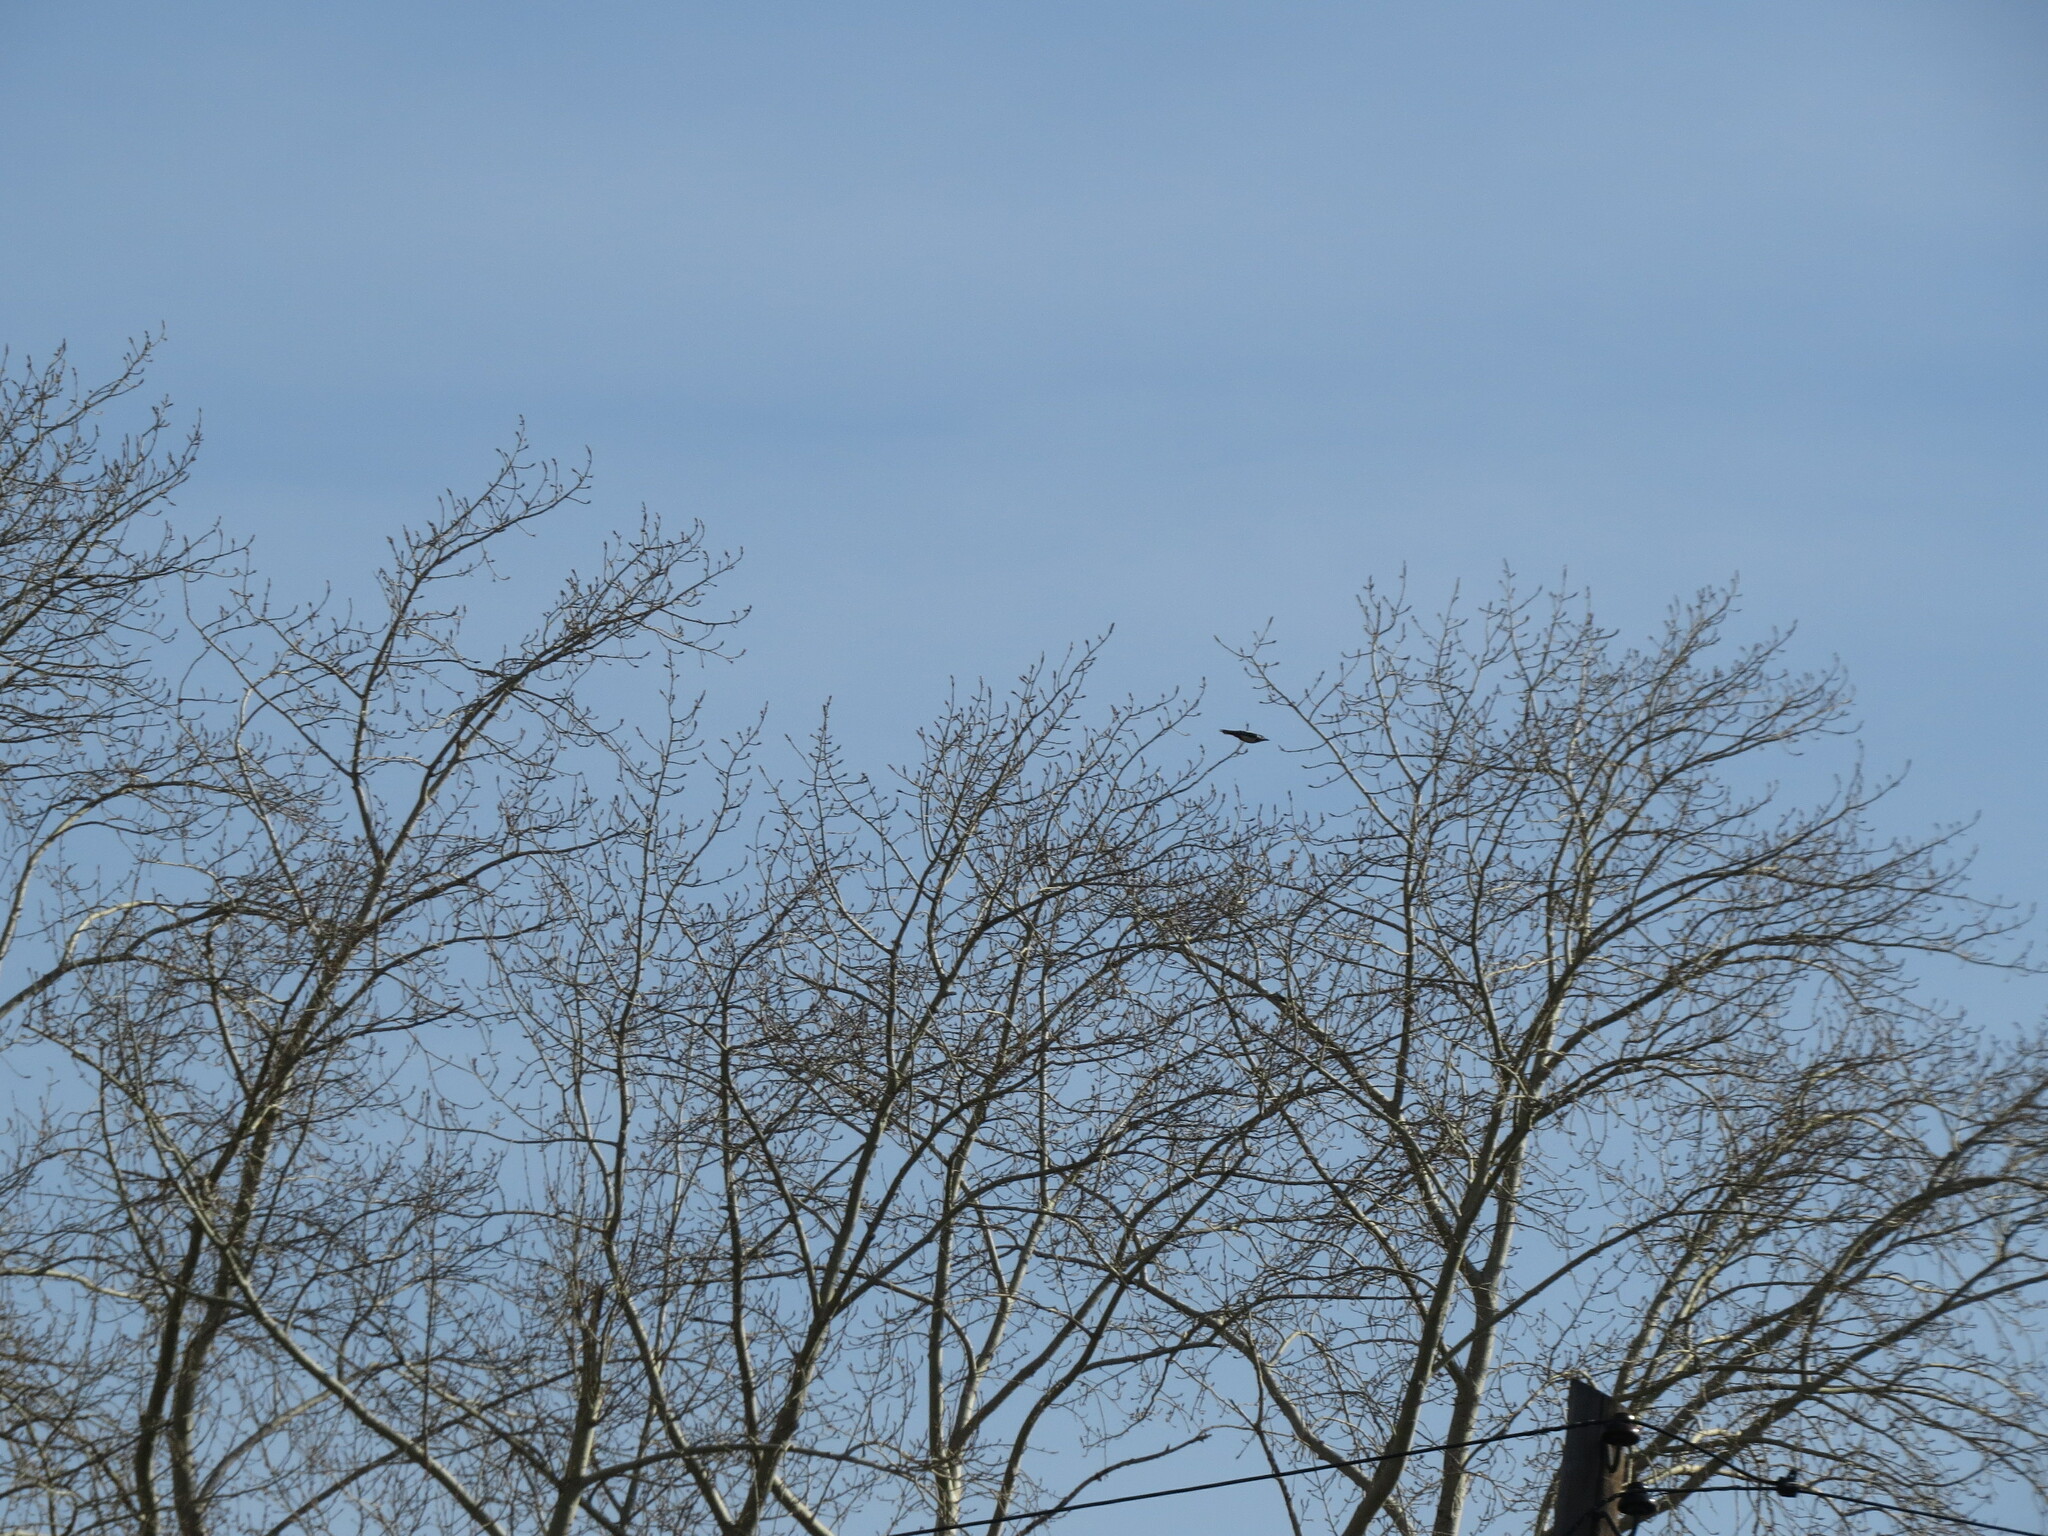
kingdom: Animalia
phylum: Chordata
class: Aves
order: Piciformes
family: Picidae
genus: Dendrocopos
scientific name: Dendrocopos major
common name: Great spotted woodpecker
